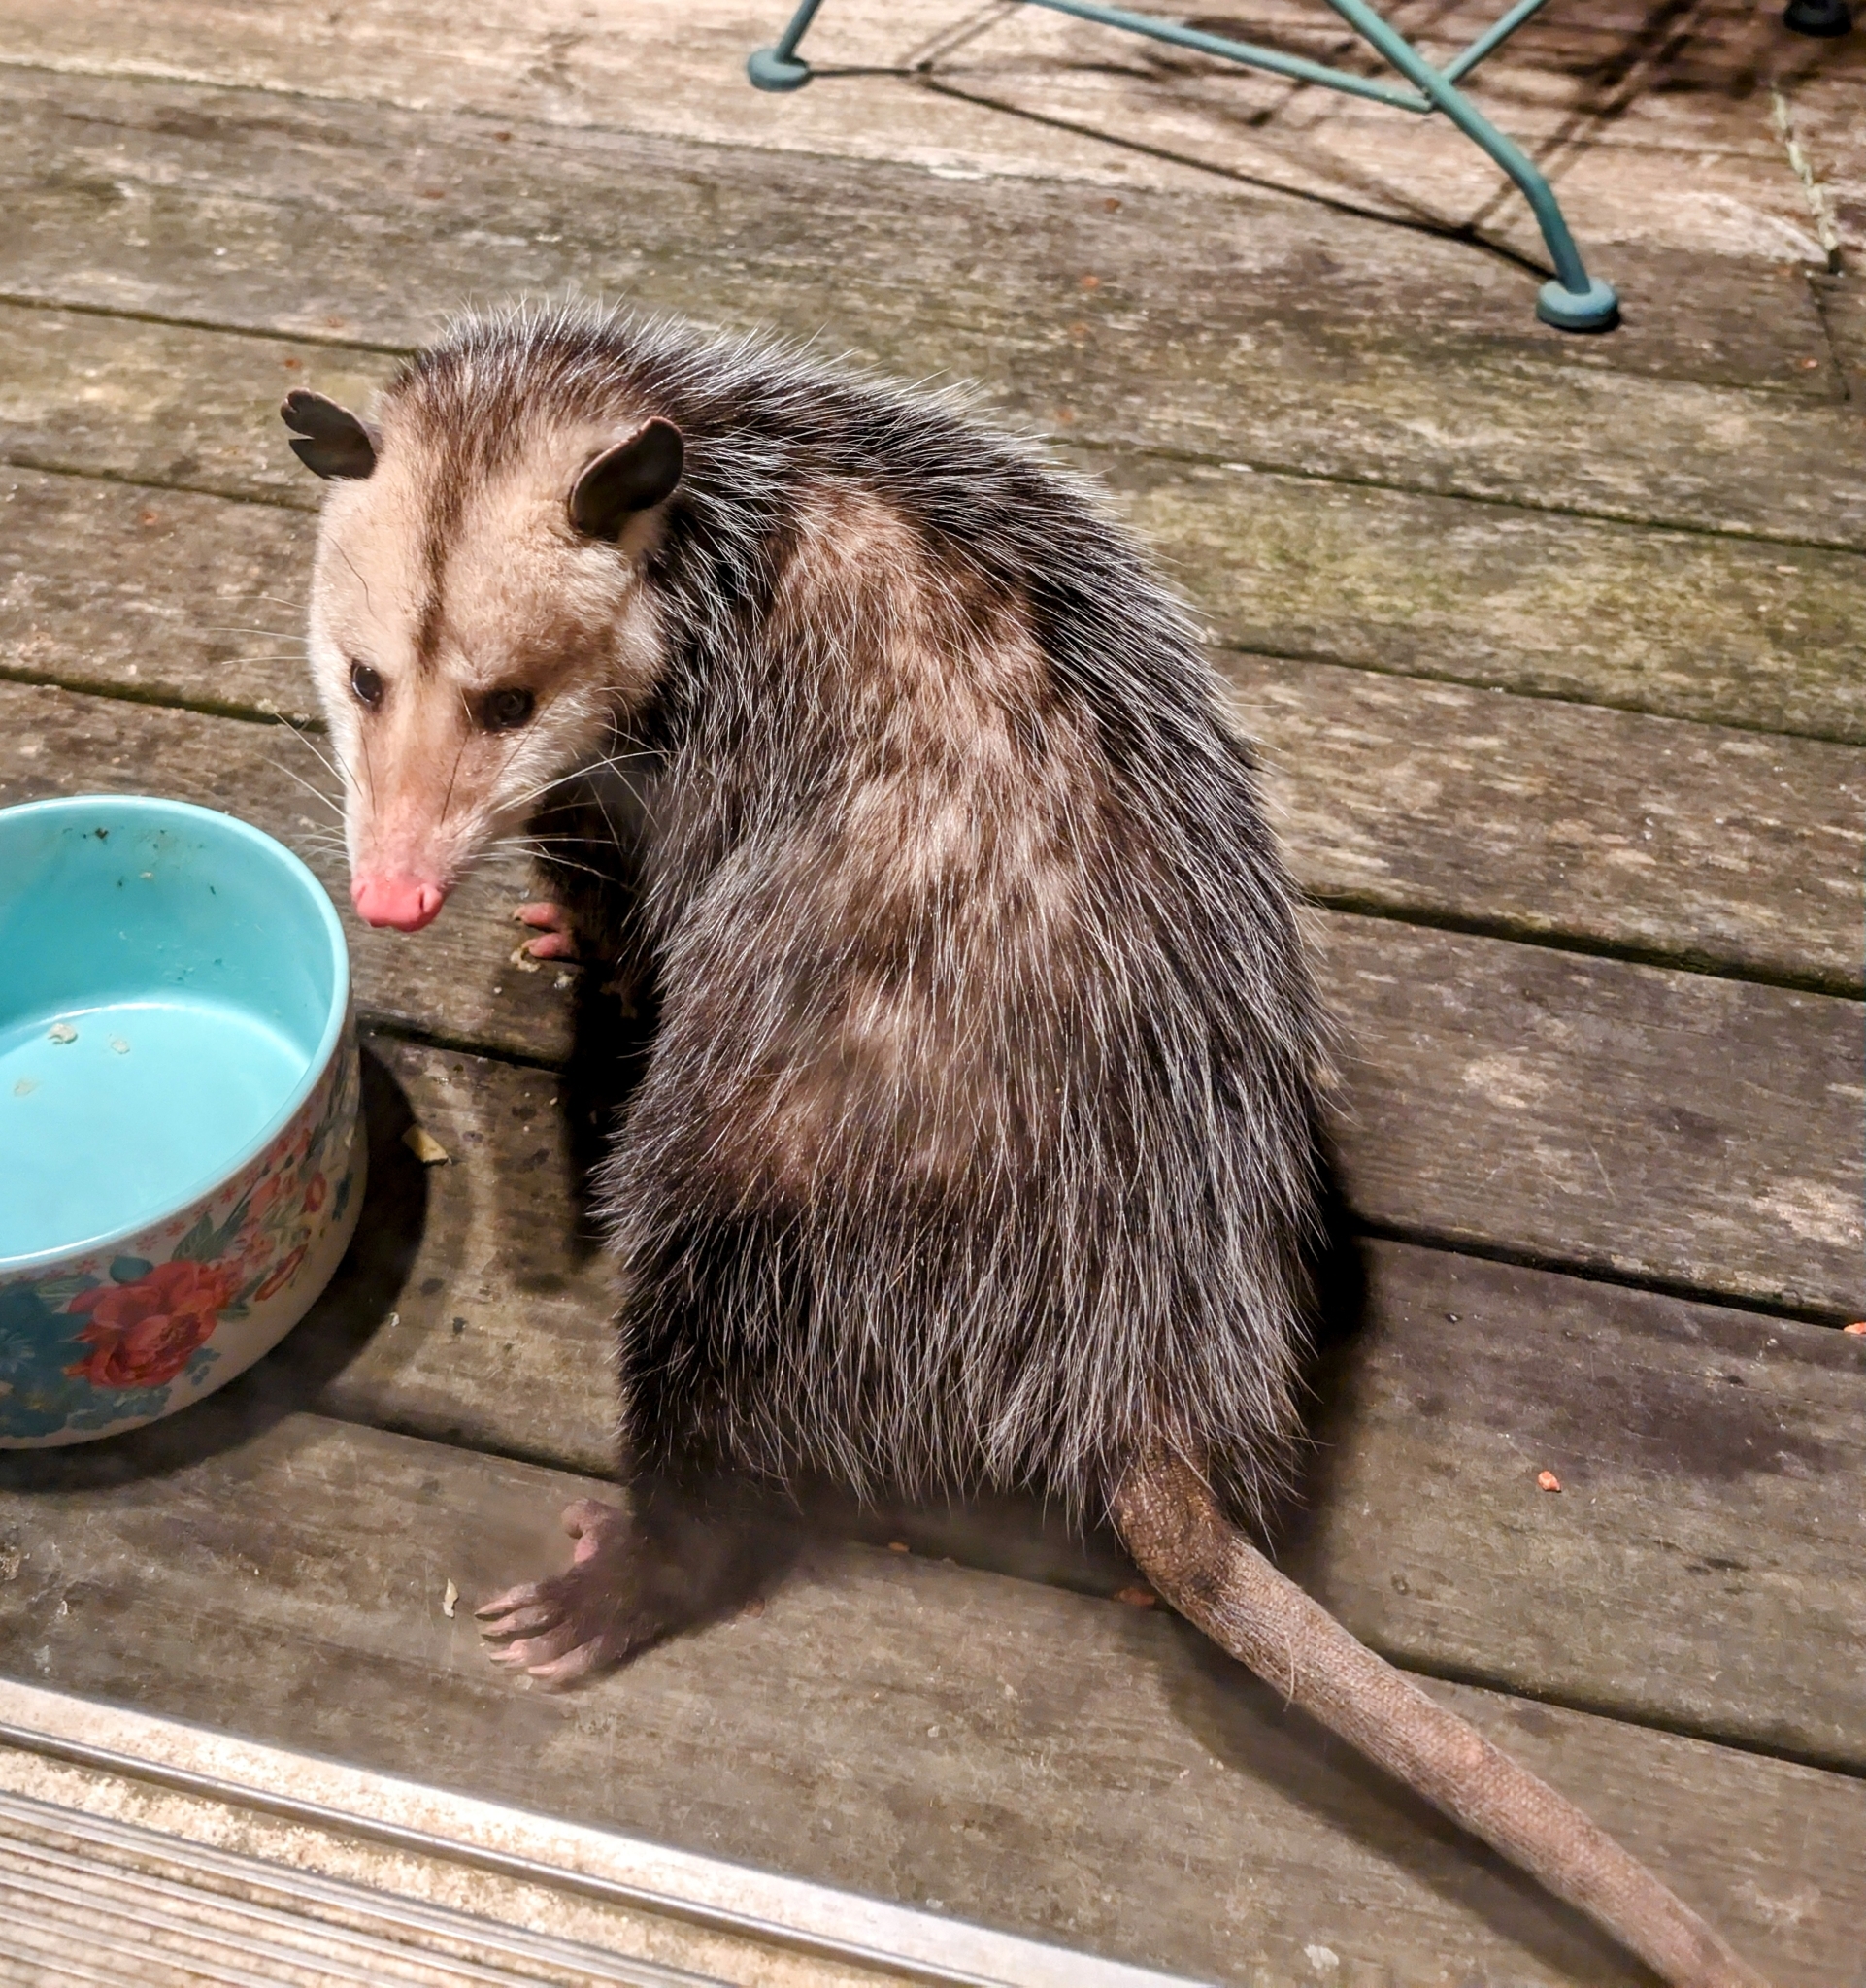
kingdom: Animalia
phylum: Chordata
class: Mammalia
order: Didelphimorphia
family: Didelphidae
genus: Didelphis
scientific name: Didelphis virginiana
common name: Virginia opossum
